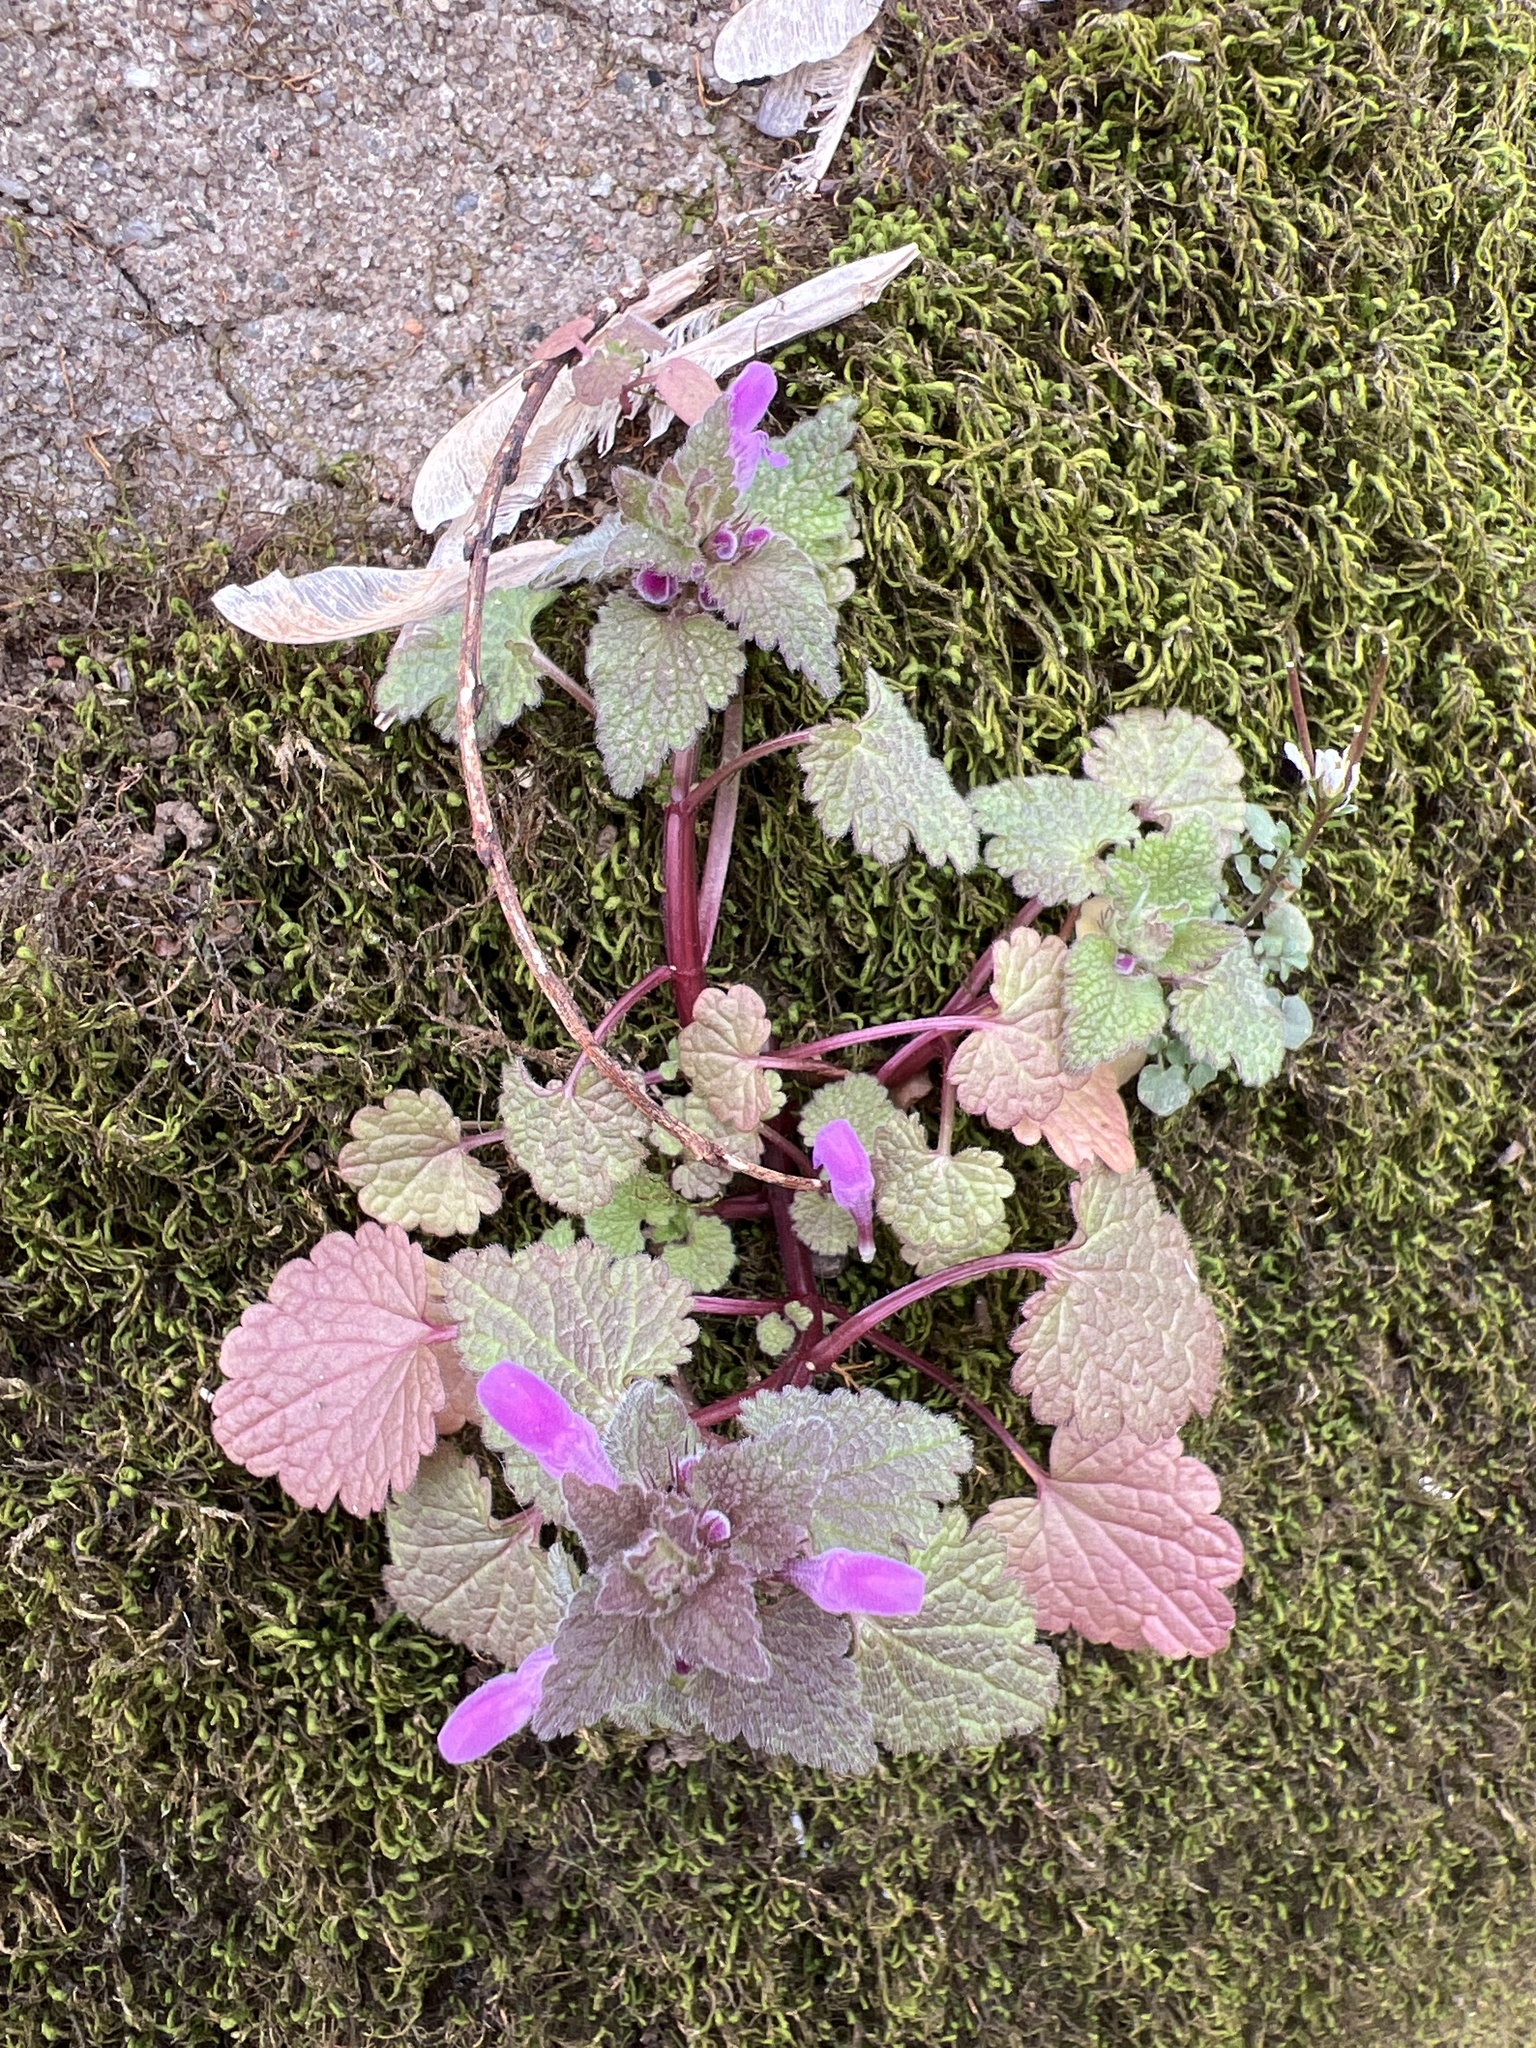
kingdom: Plantae
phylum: Tracheophyta
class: Magnoliopsida
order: Lamiales
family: Lamiaceae
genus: Lamium
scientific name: Lamium purpureum
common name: Red dead-nettle
